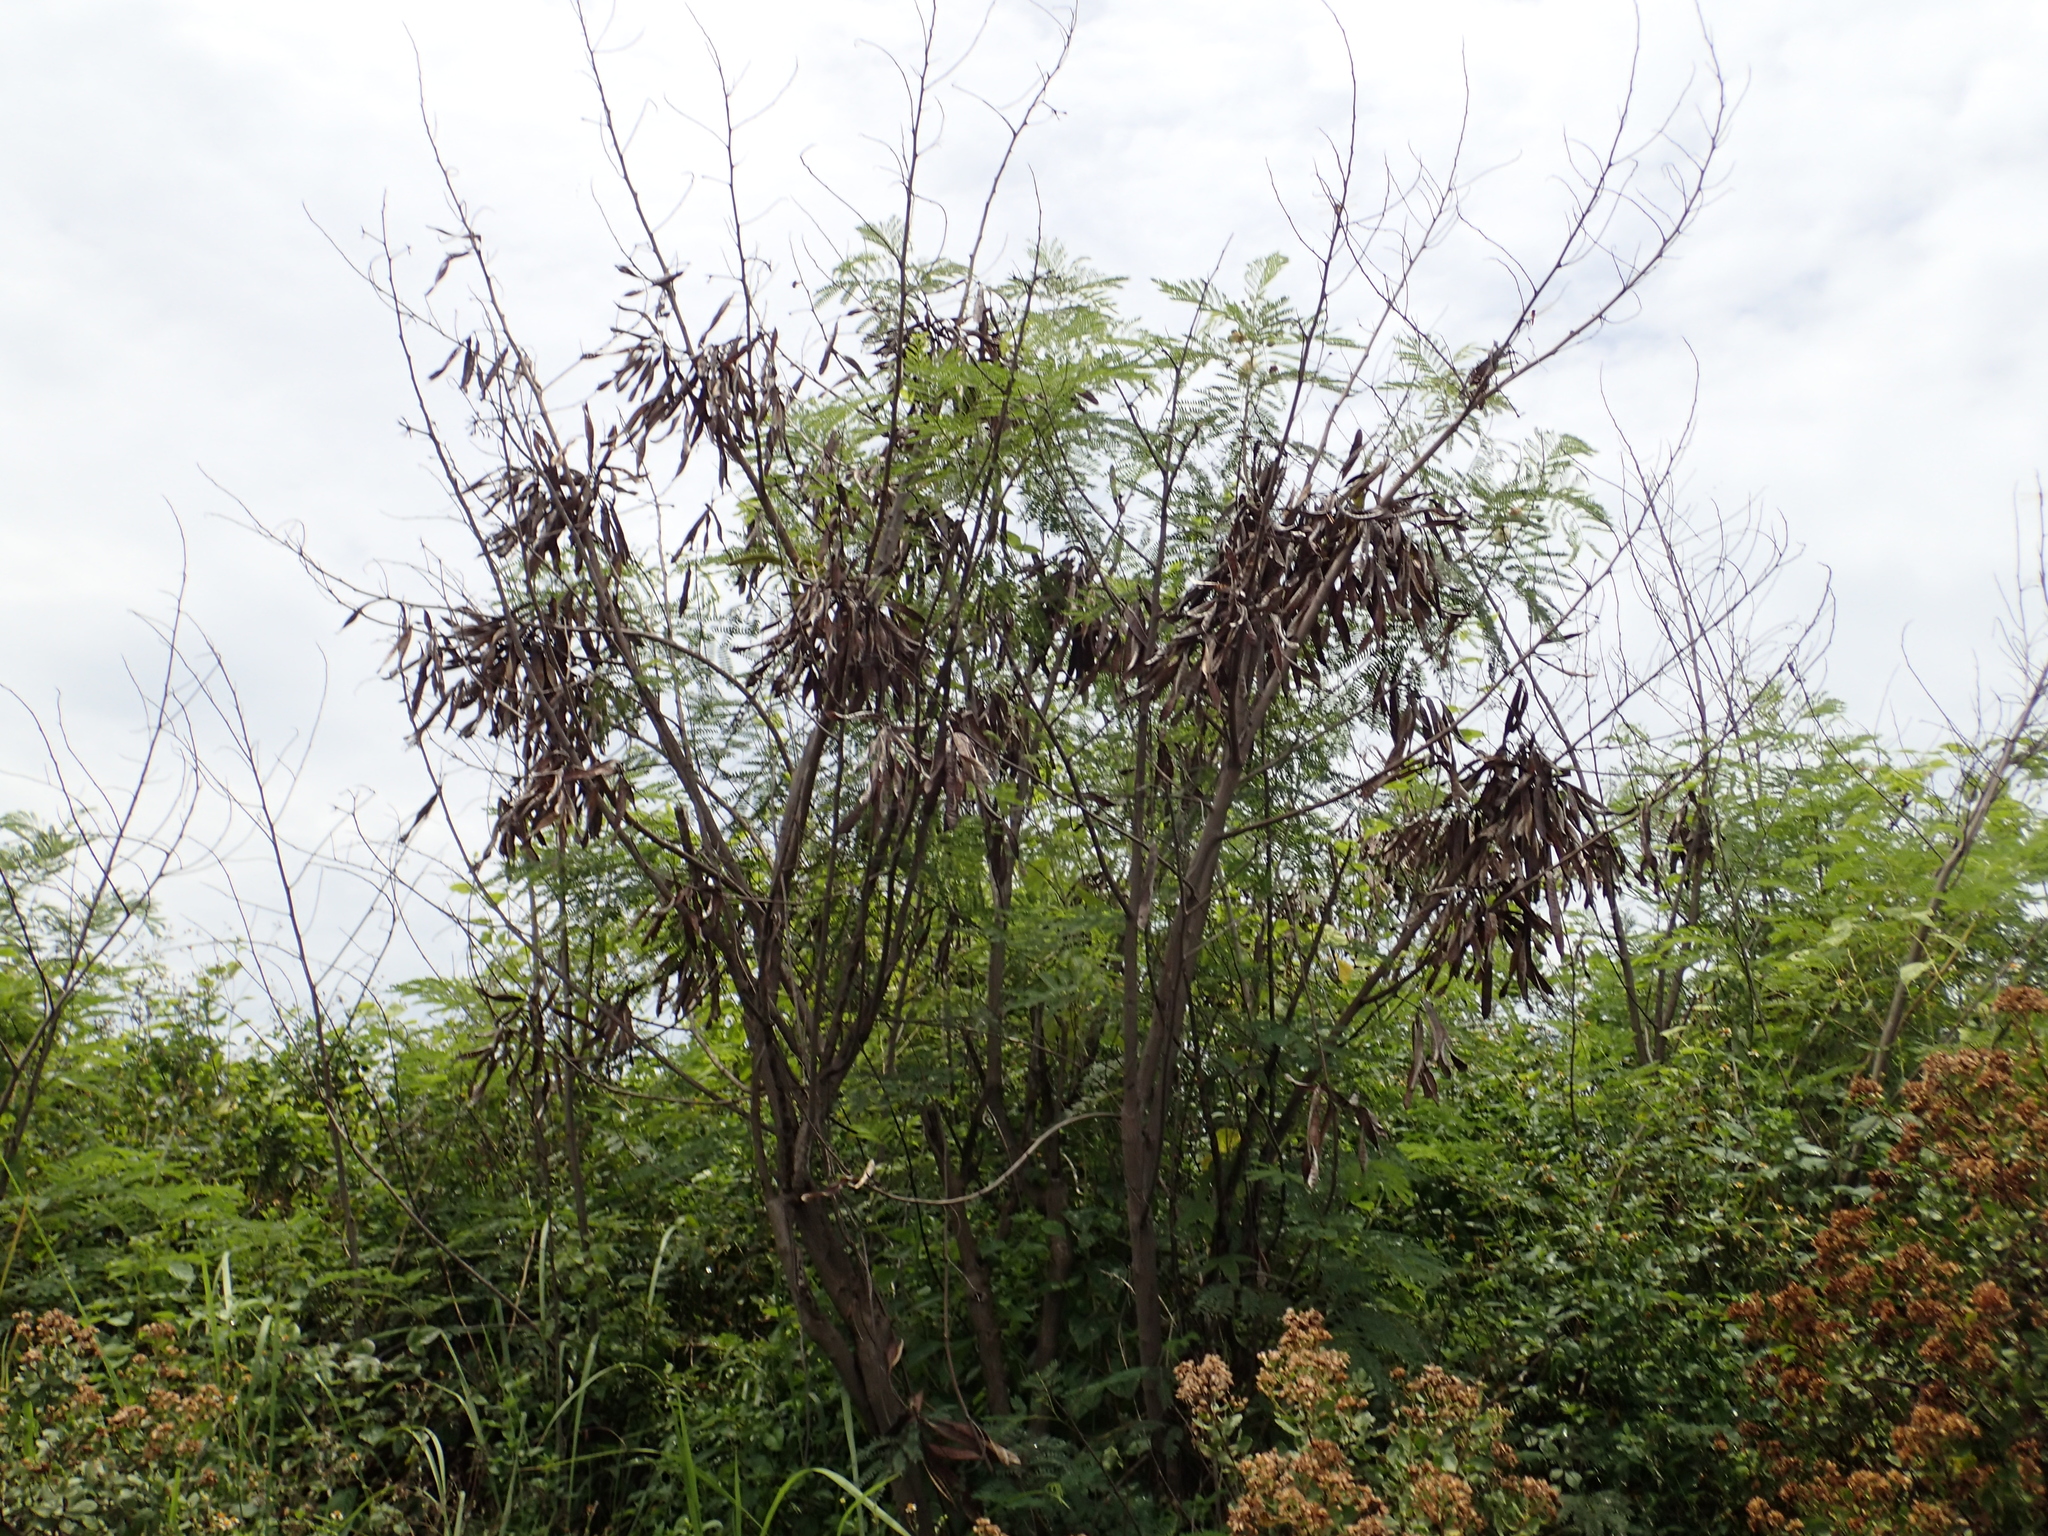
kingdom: Plantae
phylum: Tracheophyta
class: Magnoliopsida
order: Fabales
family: Fabaceae
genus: Leucaena
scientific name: Leucaena leucocephala
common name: White leadtree
